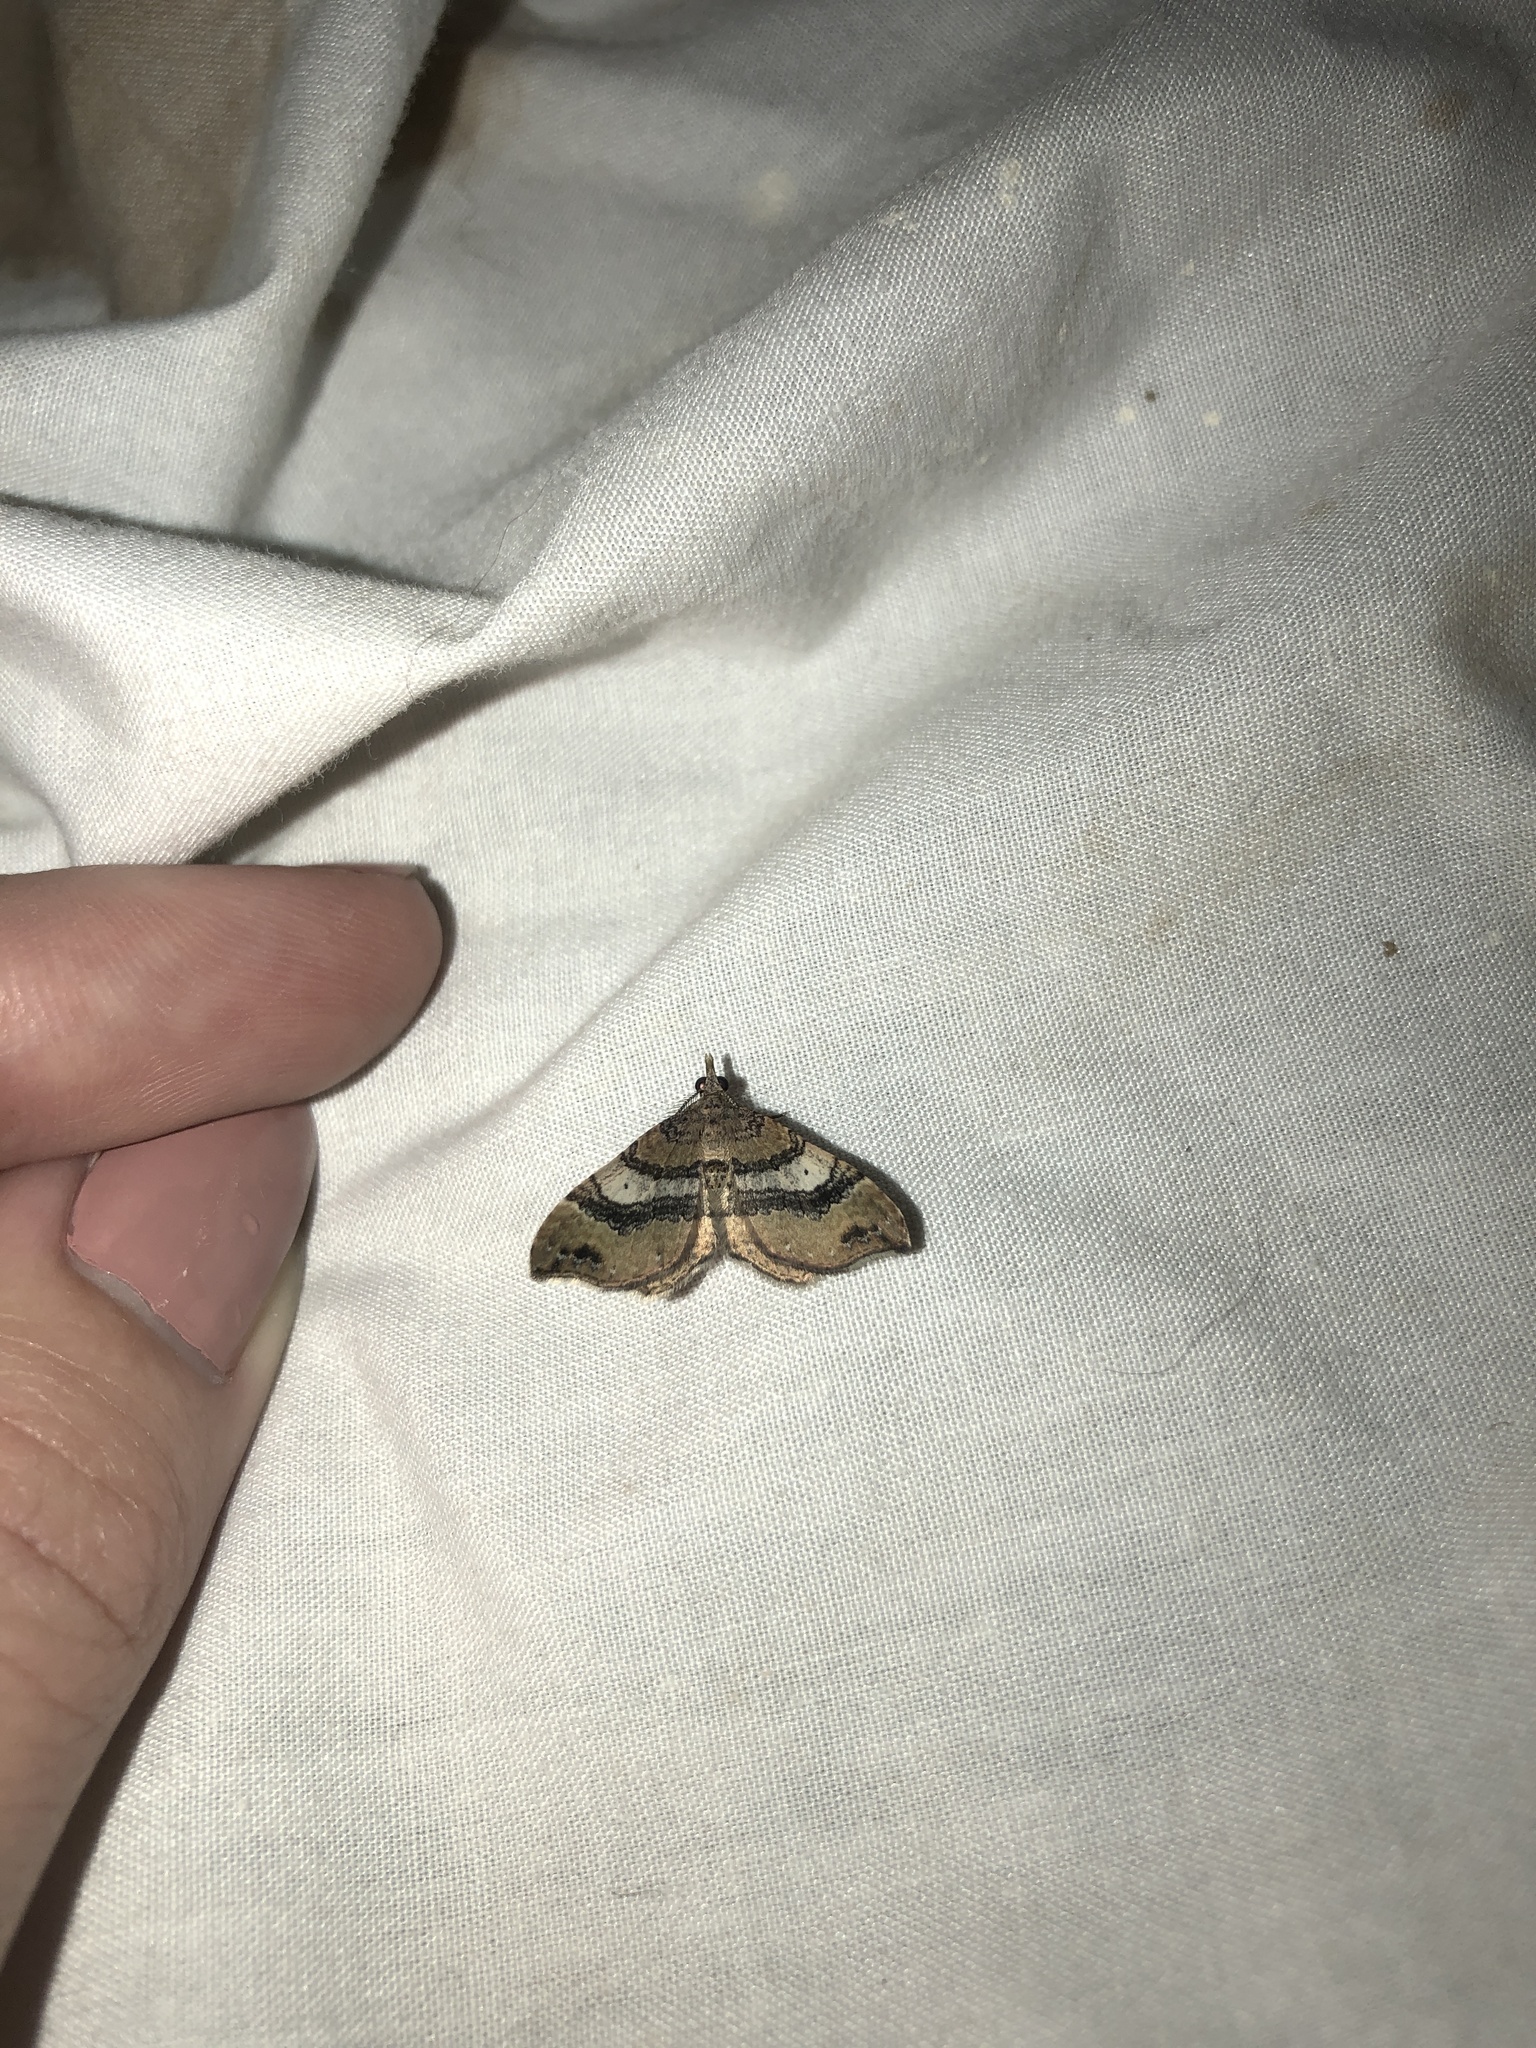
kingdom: Animalia
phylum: Arthropoda
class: Insecta
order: Lepidoptera
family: Geometridae
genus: Homodotis
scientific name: Homodotis megaspilata
